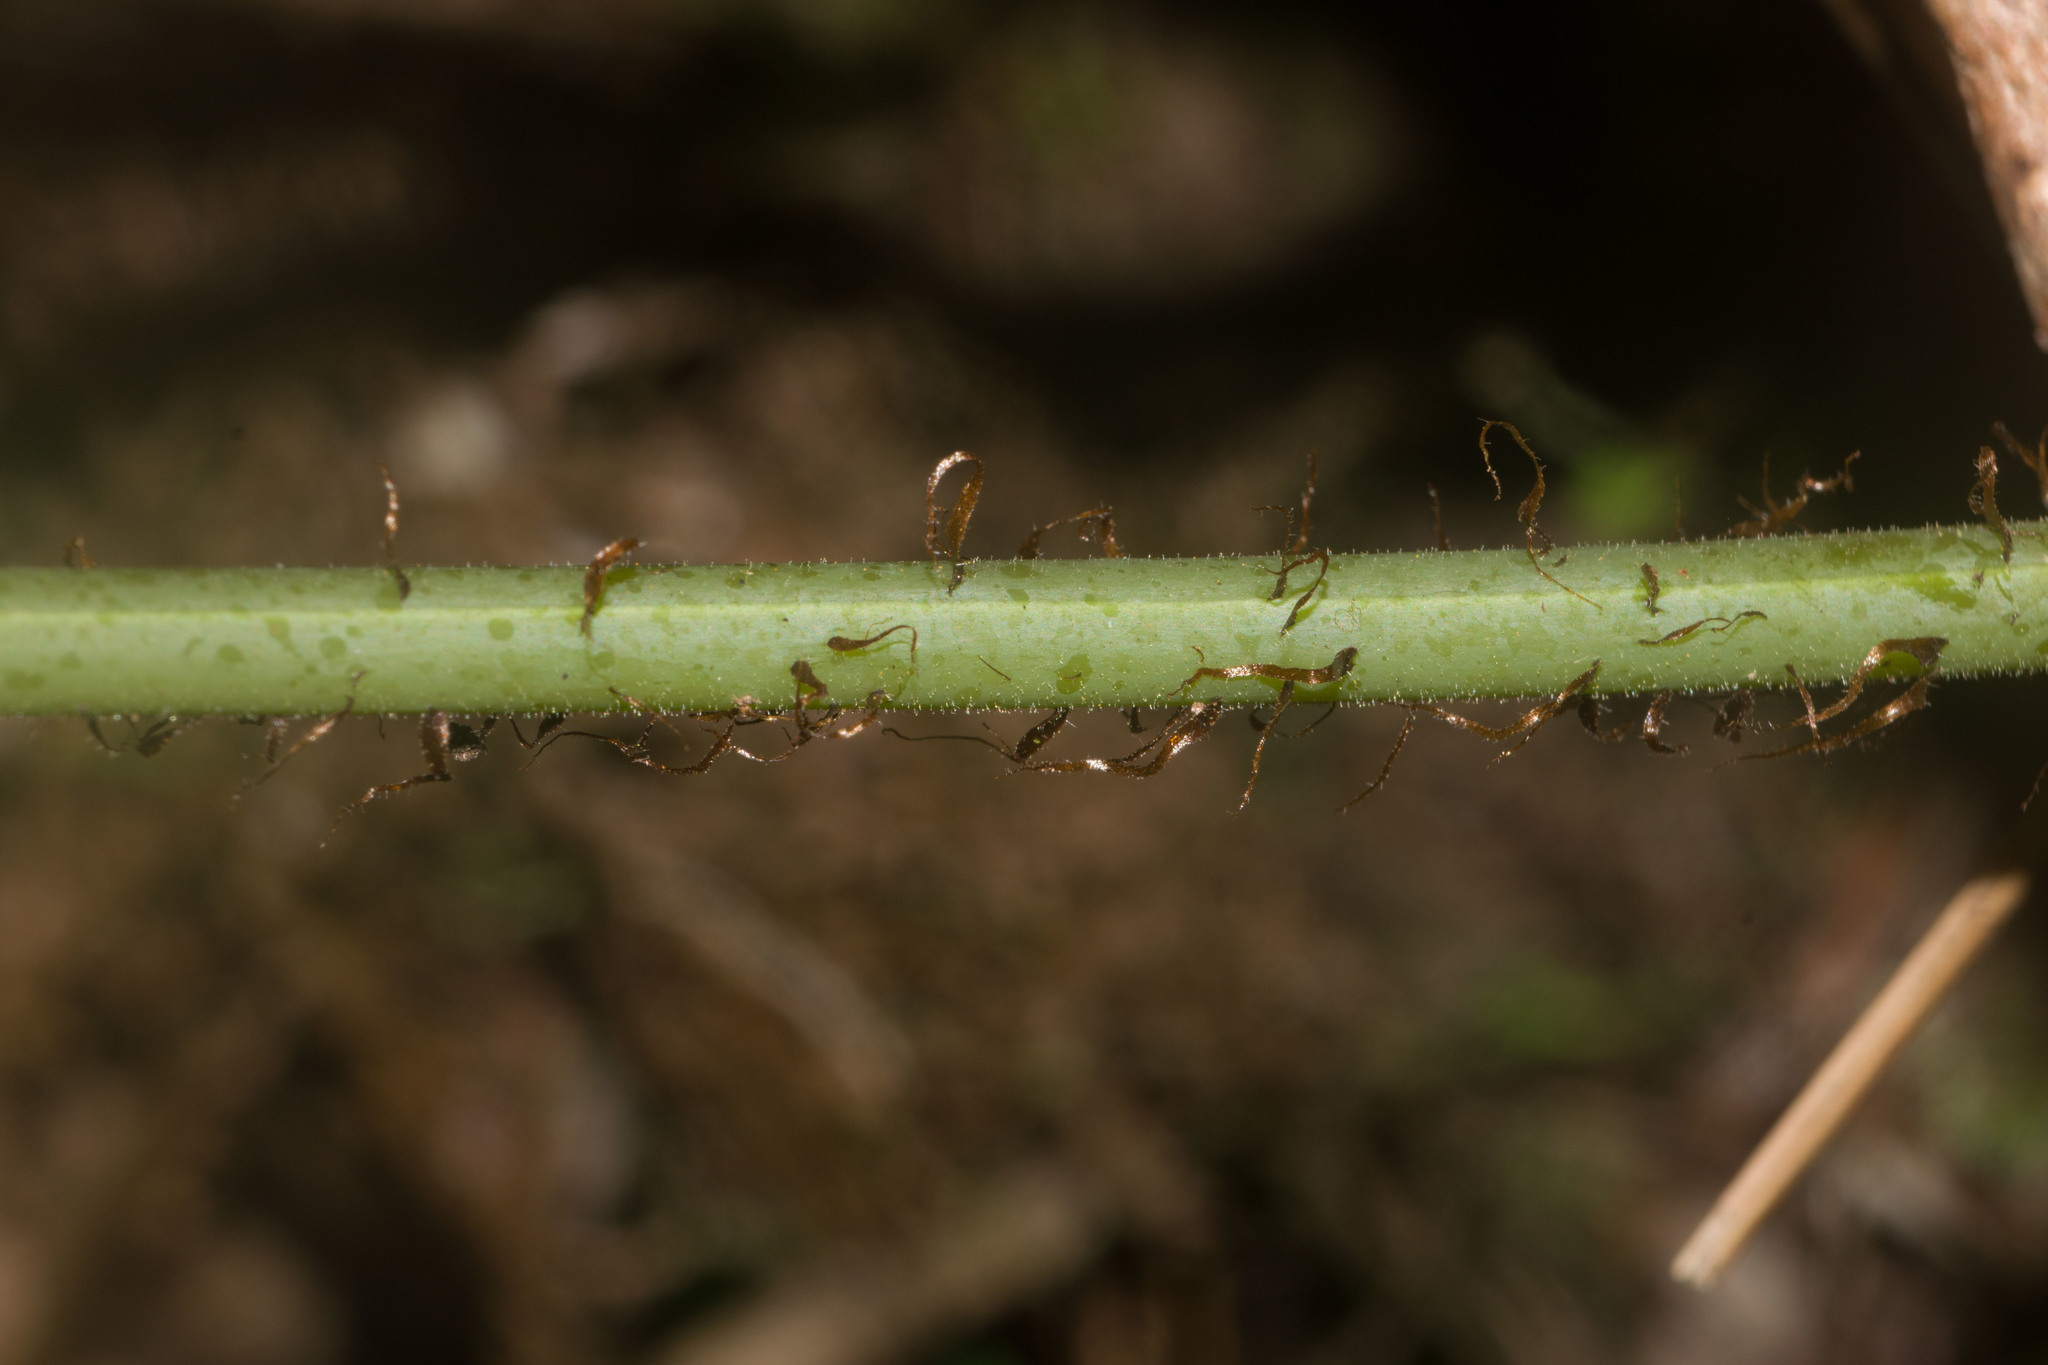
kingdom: Plantae
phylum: Tracheophyta
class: Polypodiopsida
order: Polypodiales
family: Thelypteridaceae
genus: Macrothelypteris
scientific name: Macrothelypteris torresiana
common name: Swordfern
